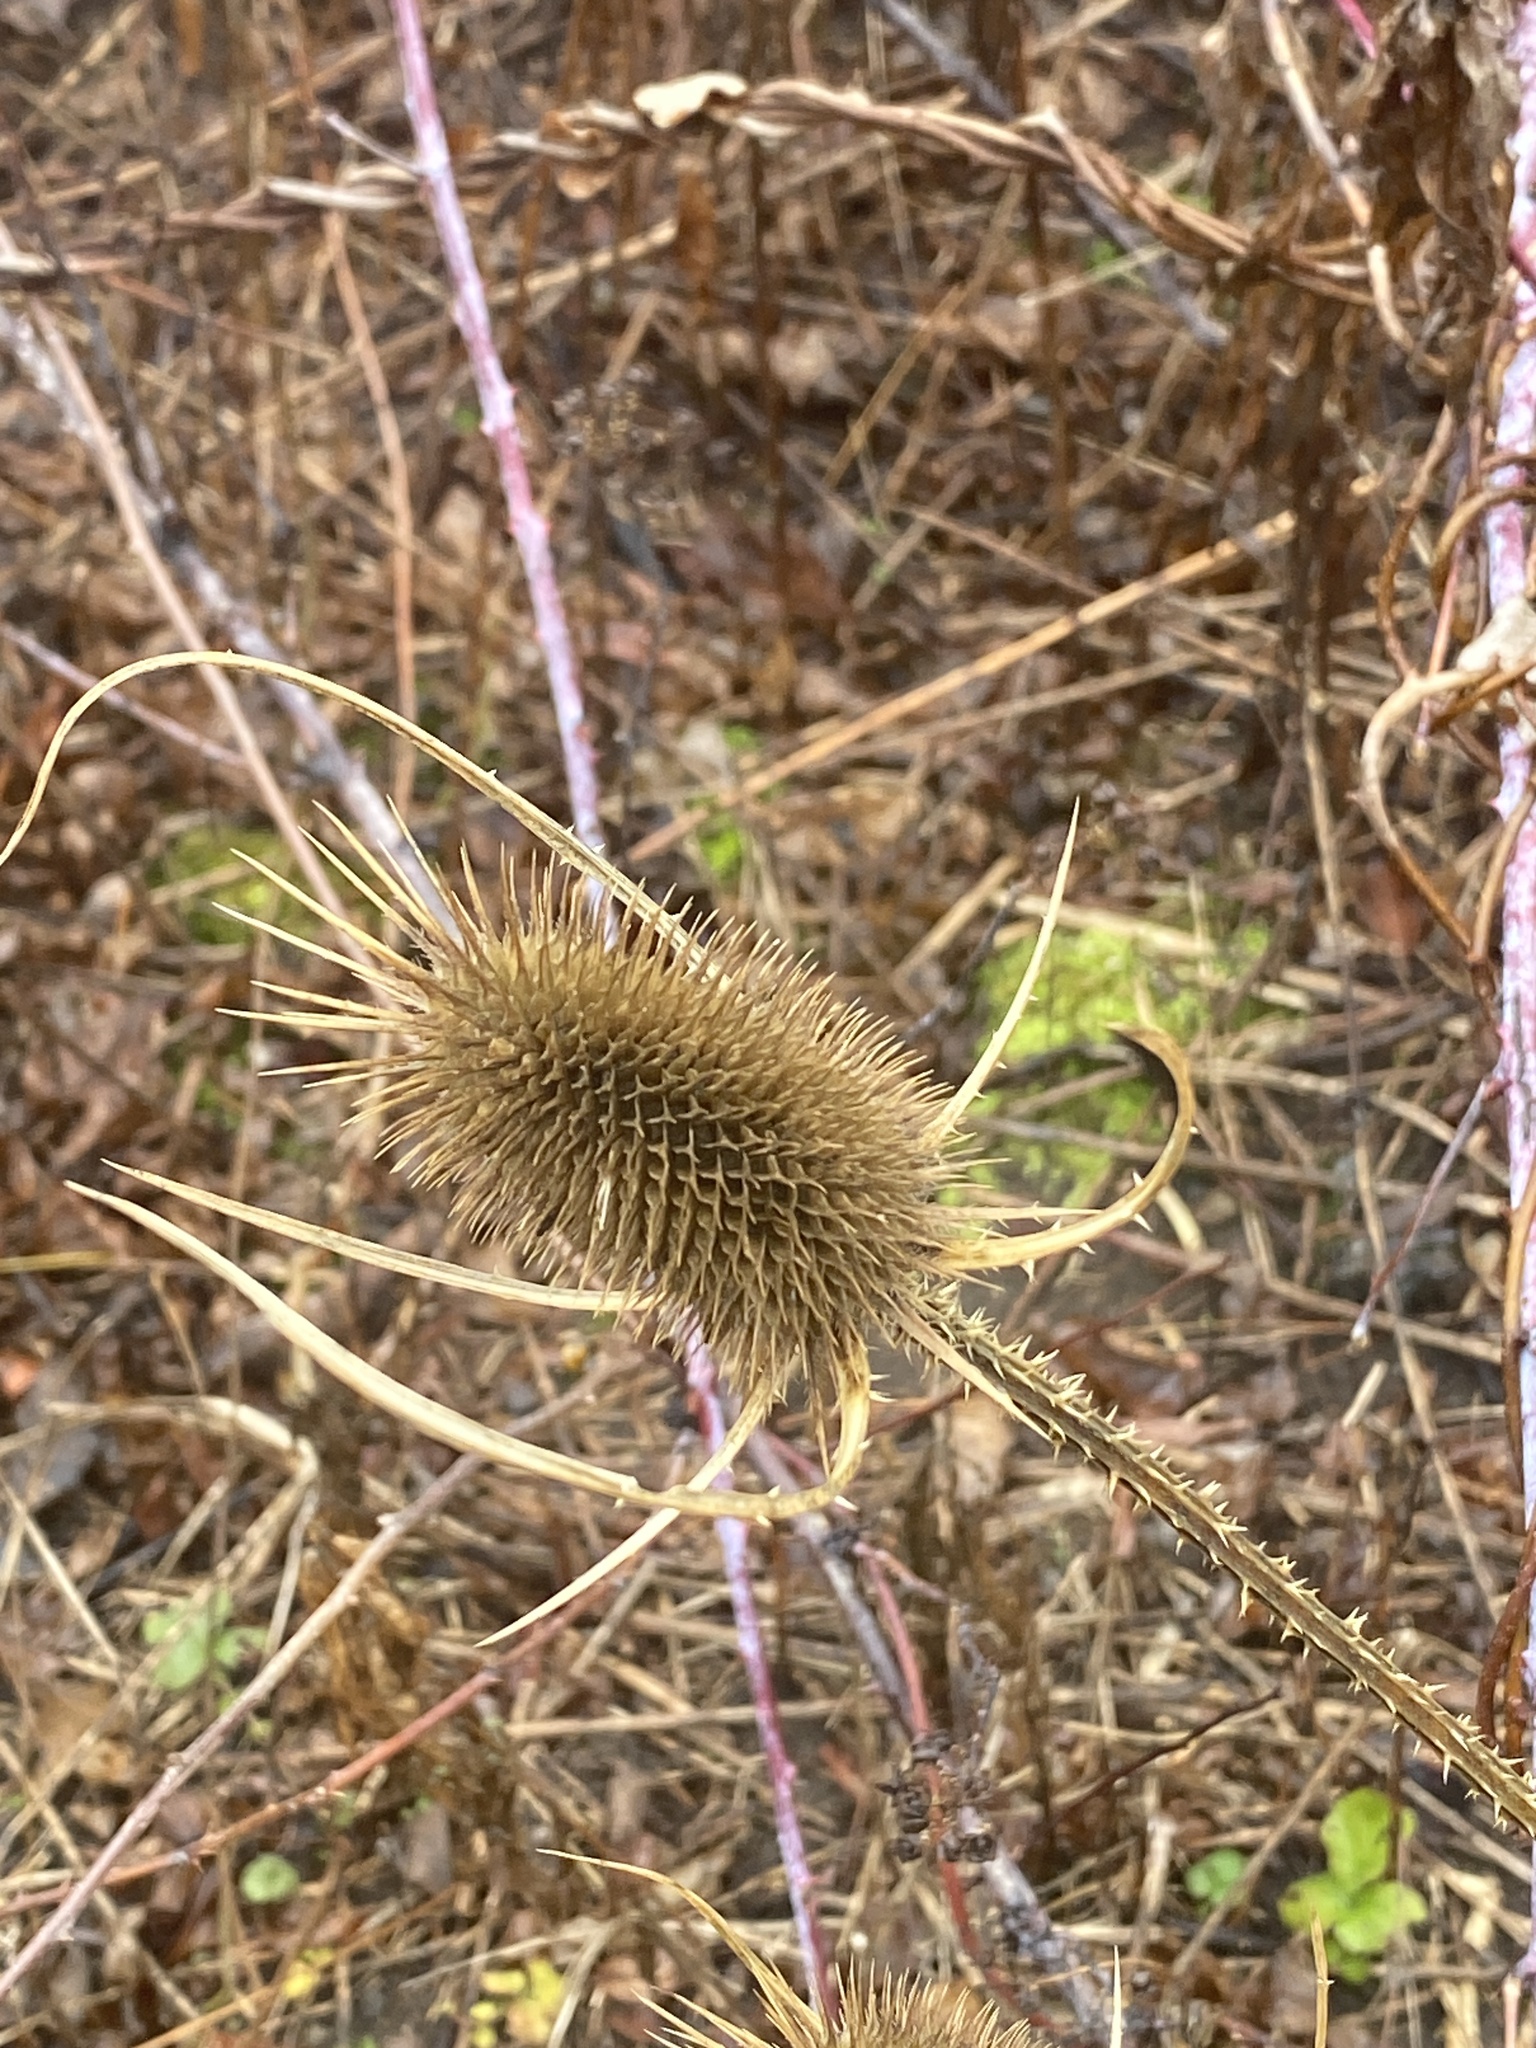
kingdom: Plantae
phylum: Tracheophyta
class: Magnoliopsida
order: Dipsacales
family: Caprifoliaceae
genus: Dipsacus
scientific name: Dipsacus fullonum
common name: Teasel
